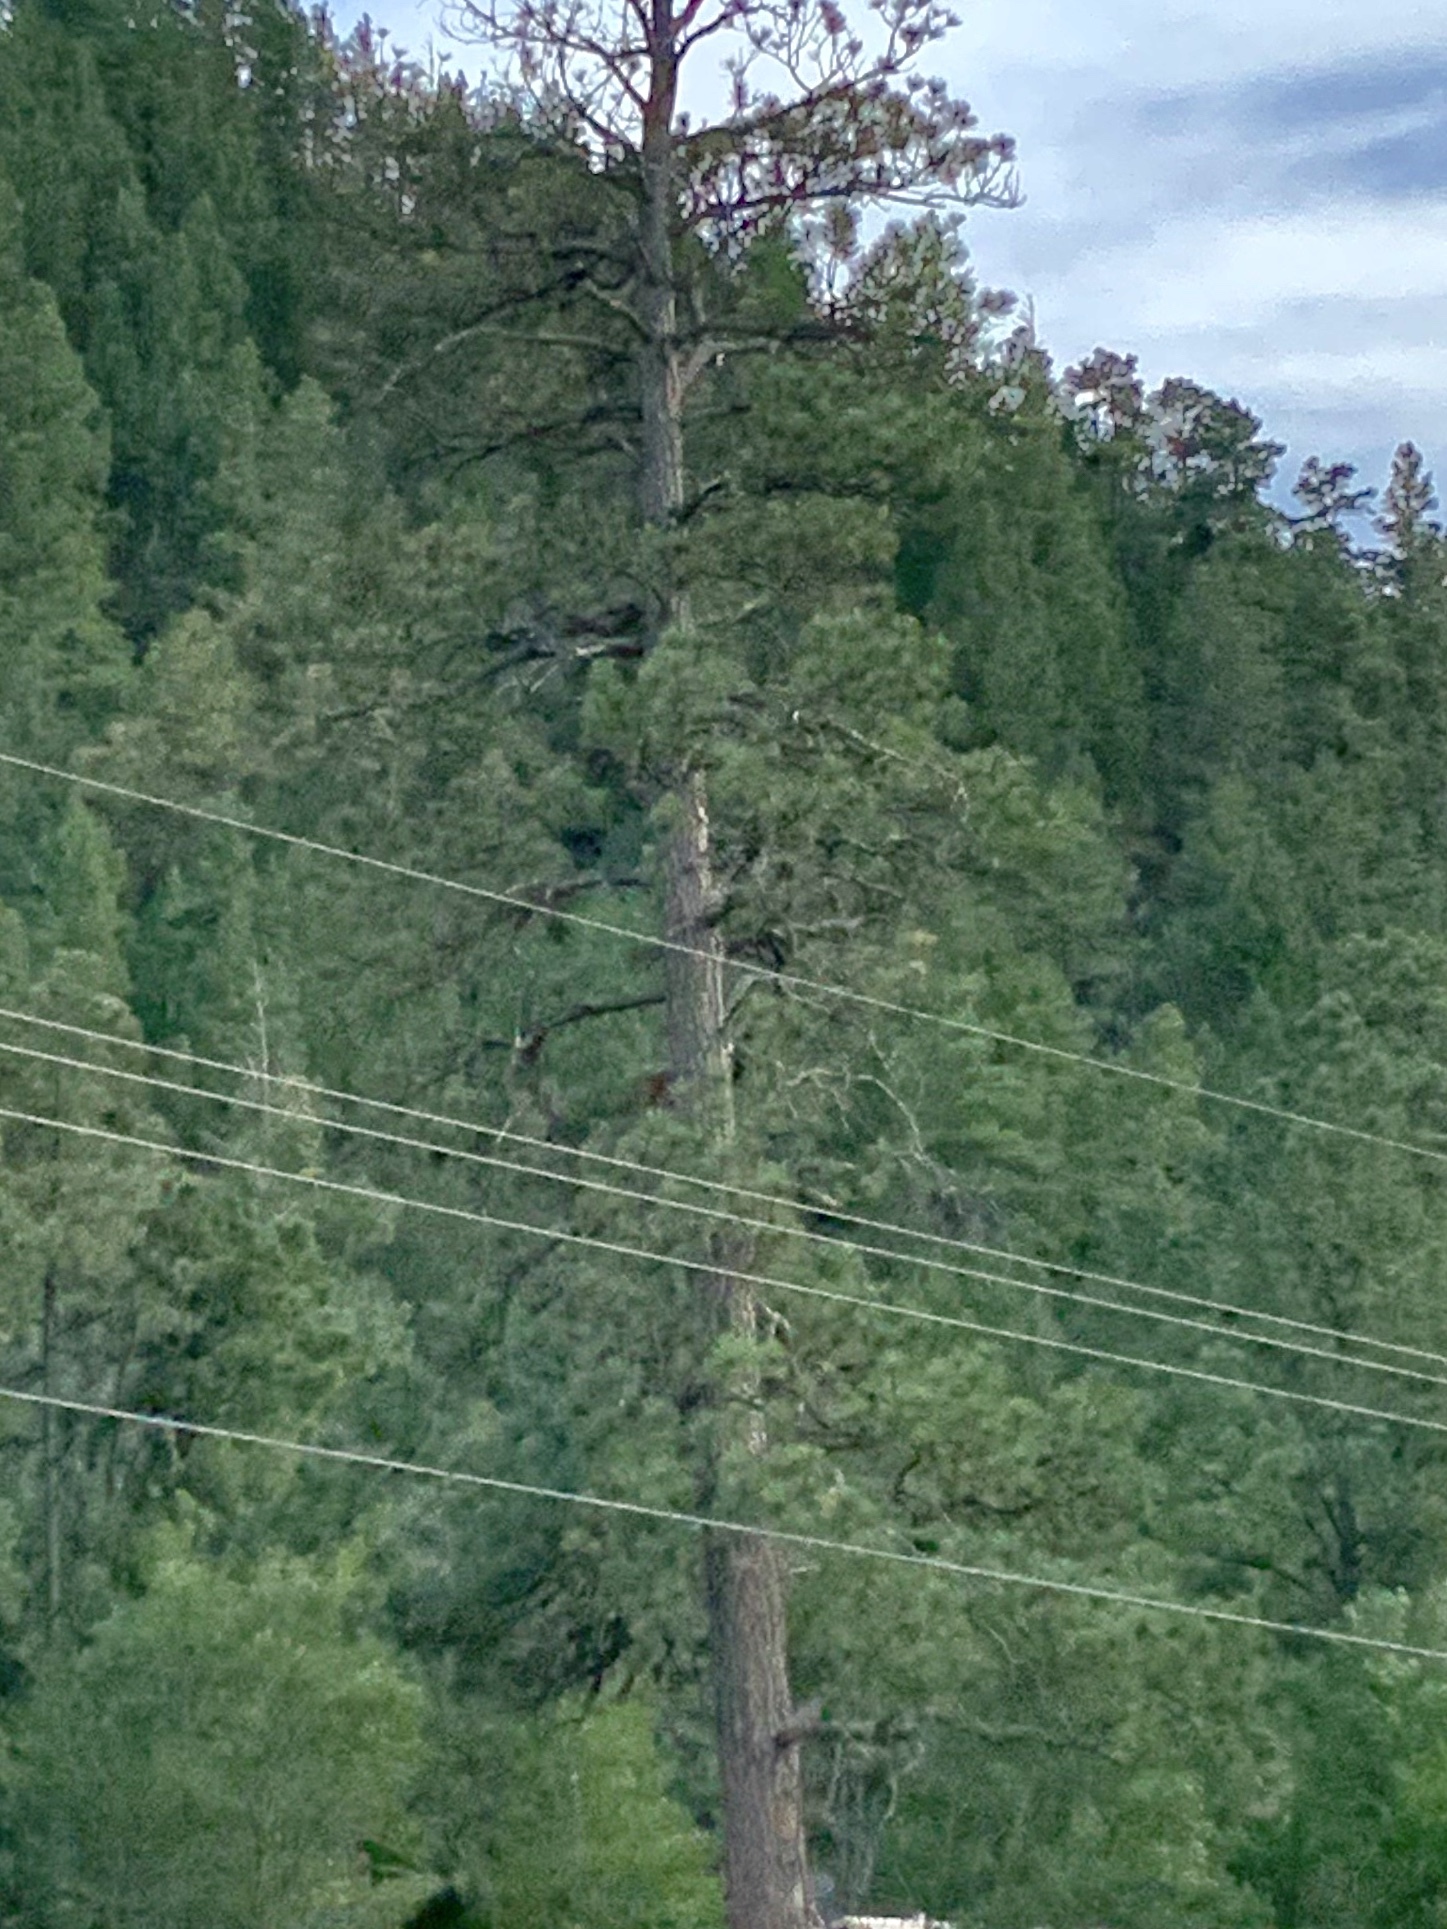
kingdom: Plantae
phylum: Tracheophyta
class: Pinopsida
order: Pinales
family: Pinaceae
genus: Pinus
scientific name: Pinus ponderosa
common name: Western yellow-pine
